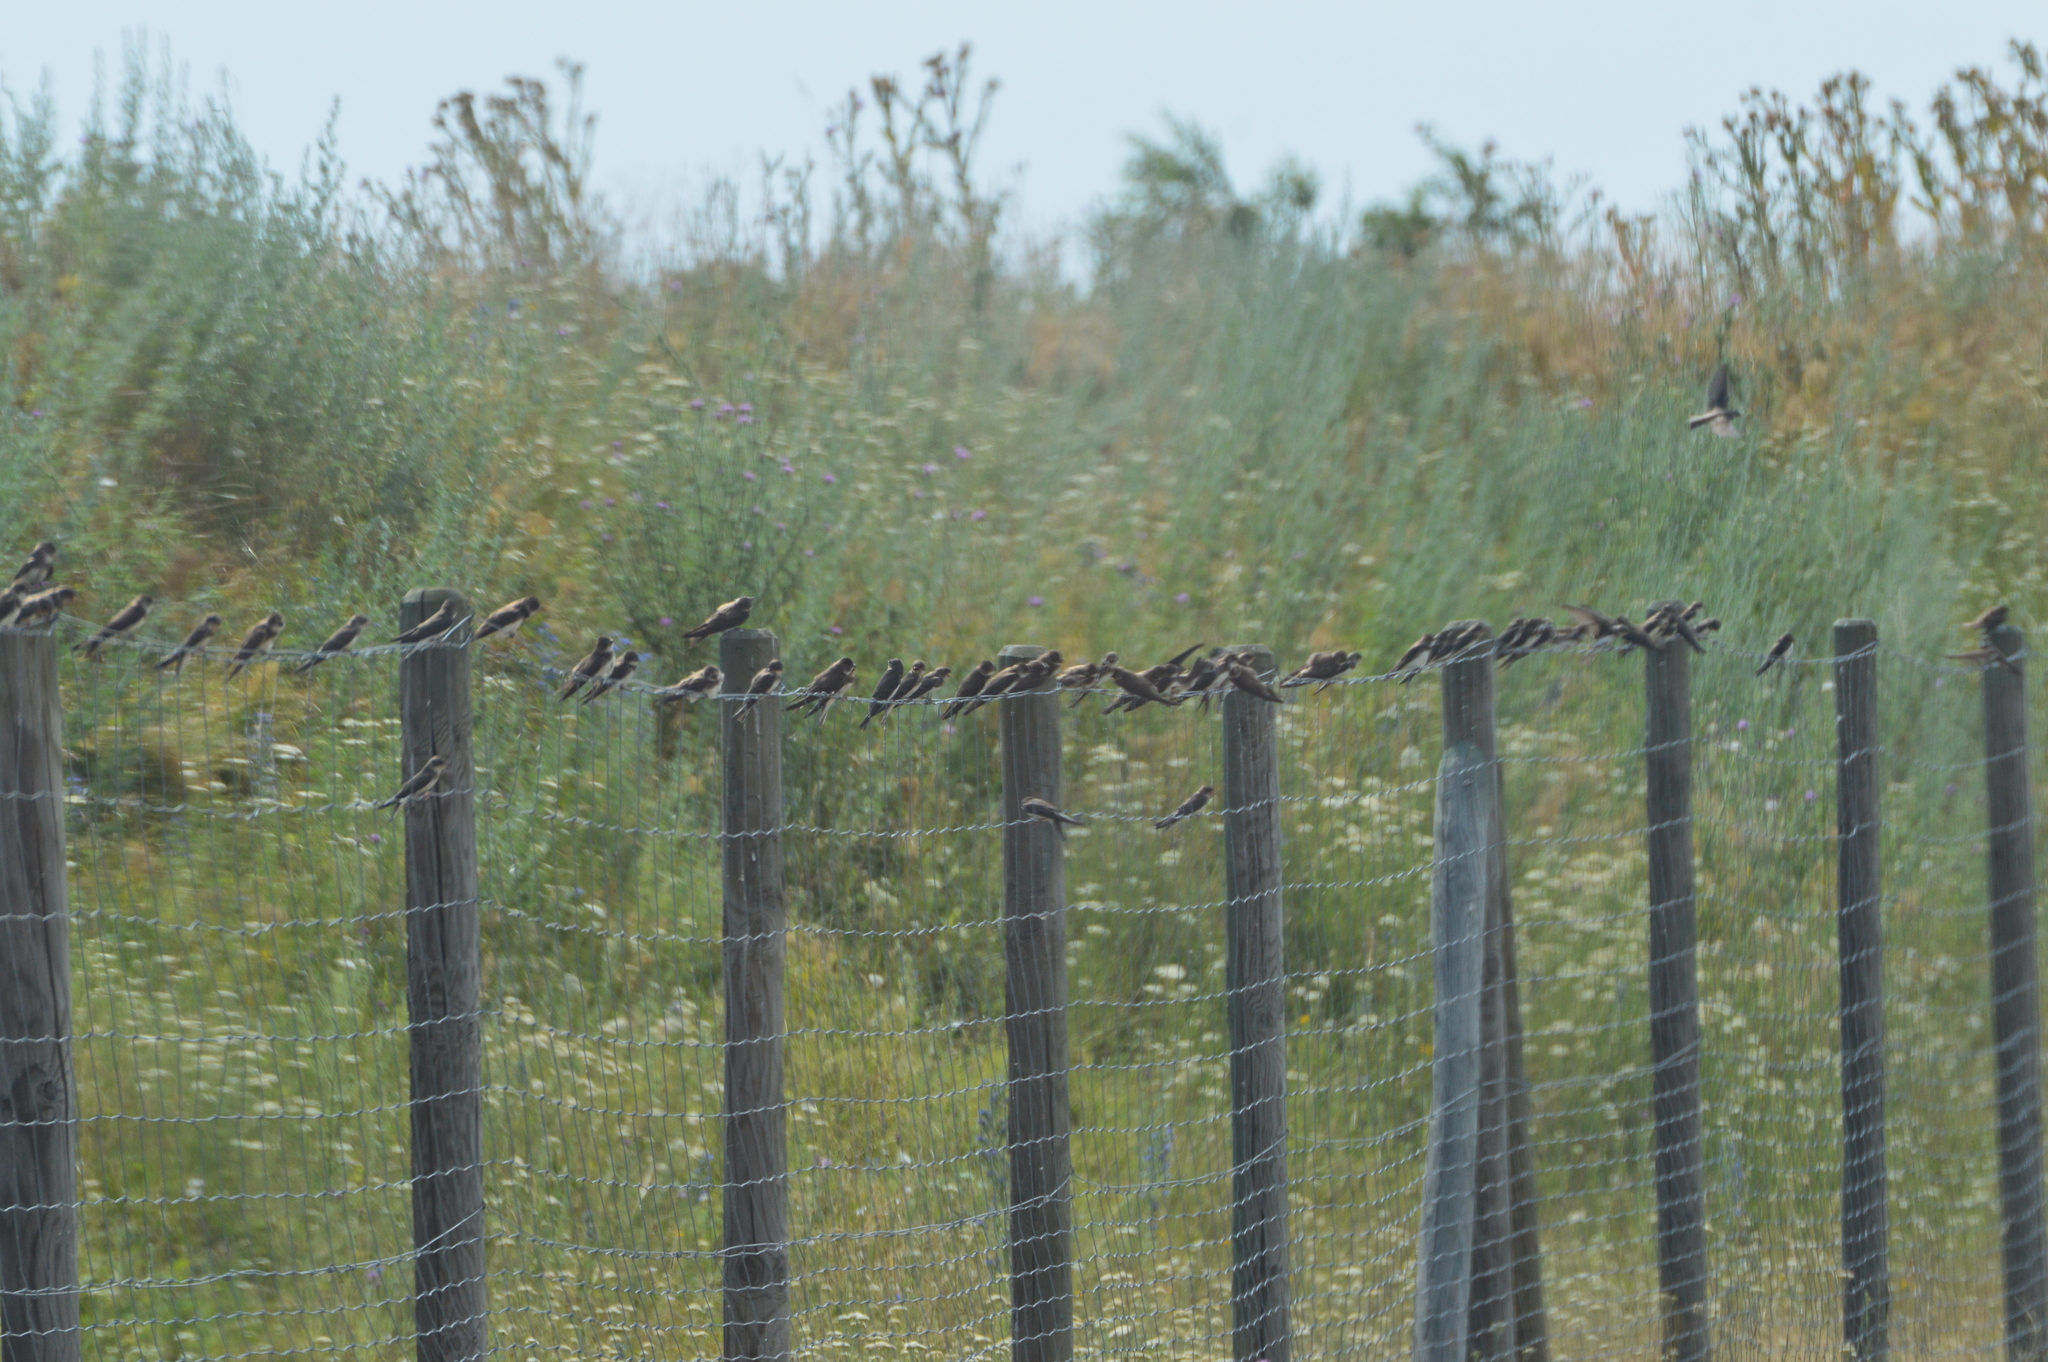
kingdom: Animalia
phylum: Chordata
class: Aves
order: Passeriformes
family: Hirundinidae
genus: Riparia
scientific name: Riparia riparia
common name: Sand martin
